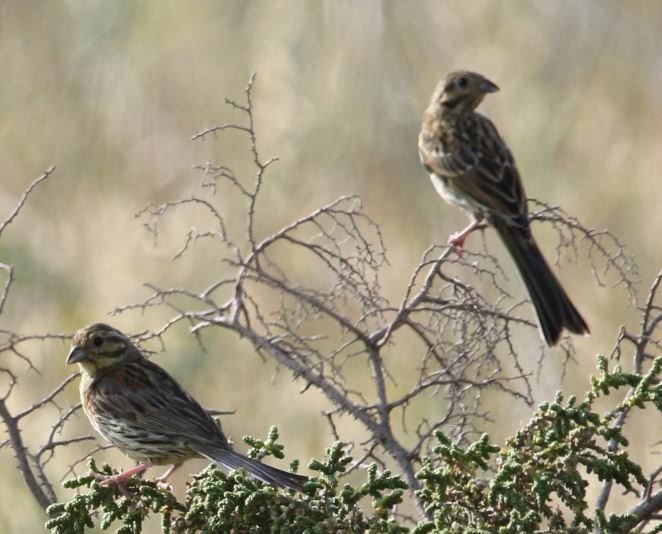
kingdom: Animalia
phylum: Chordata
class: Aves
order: Passeriformes
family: Emberizidae
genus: Emberiza
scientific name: Emberiza cirlus
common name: Cirl bunting
